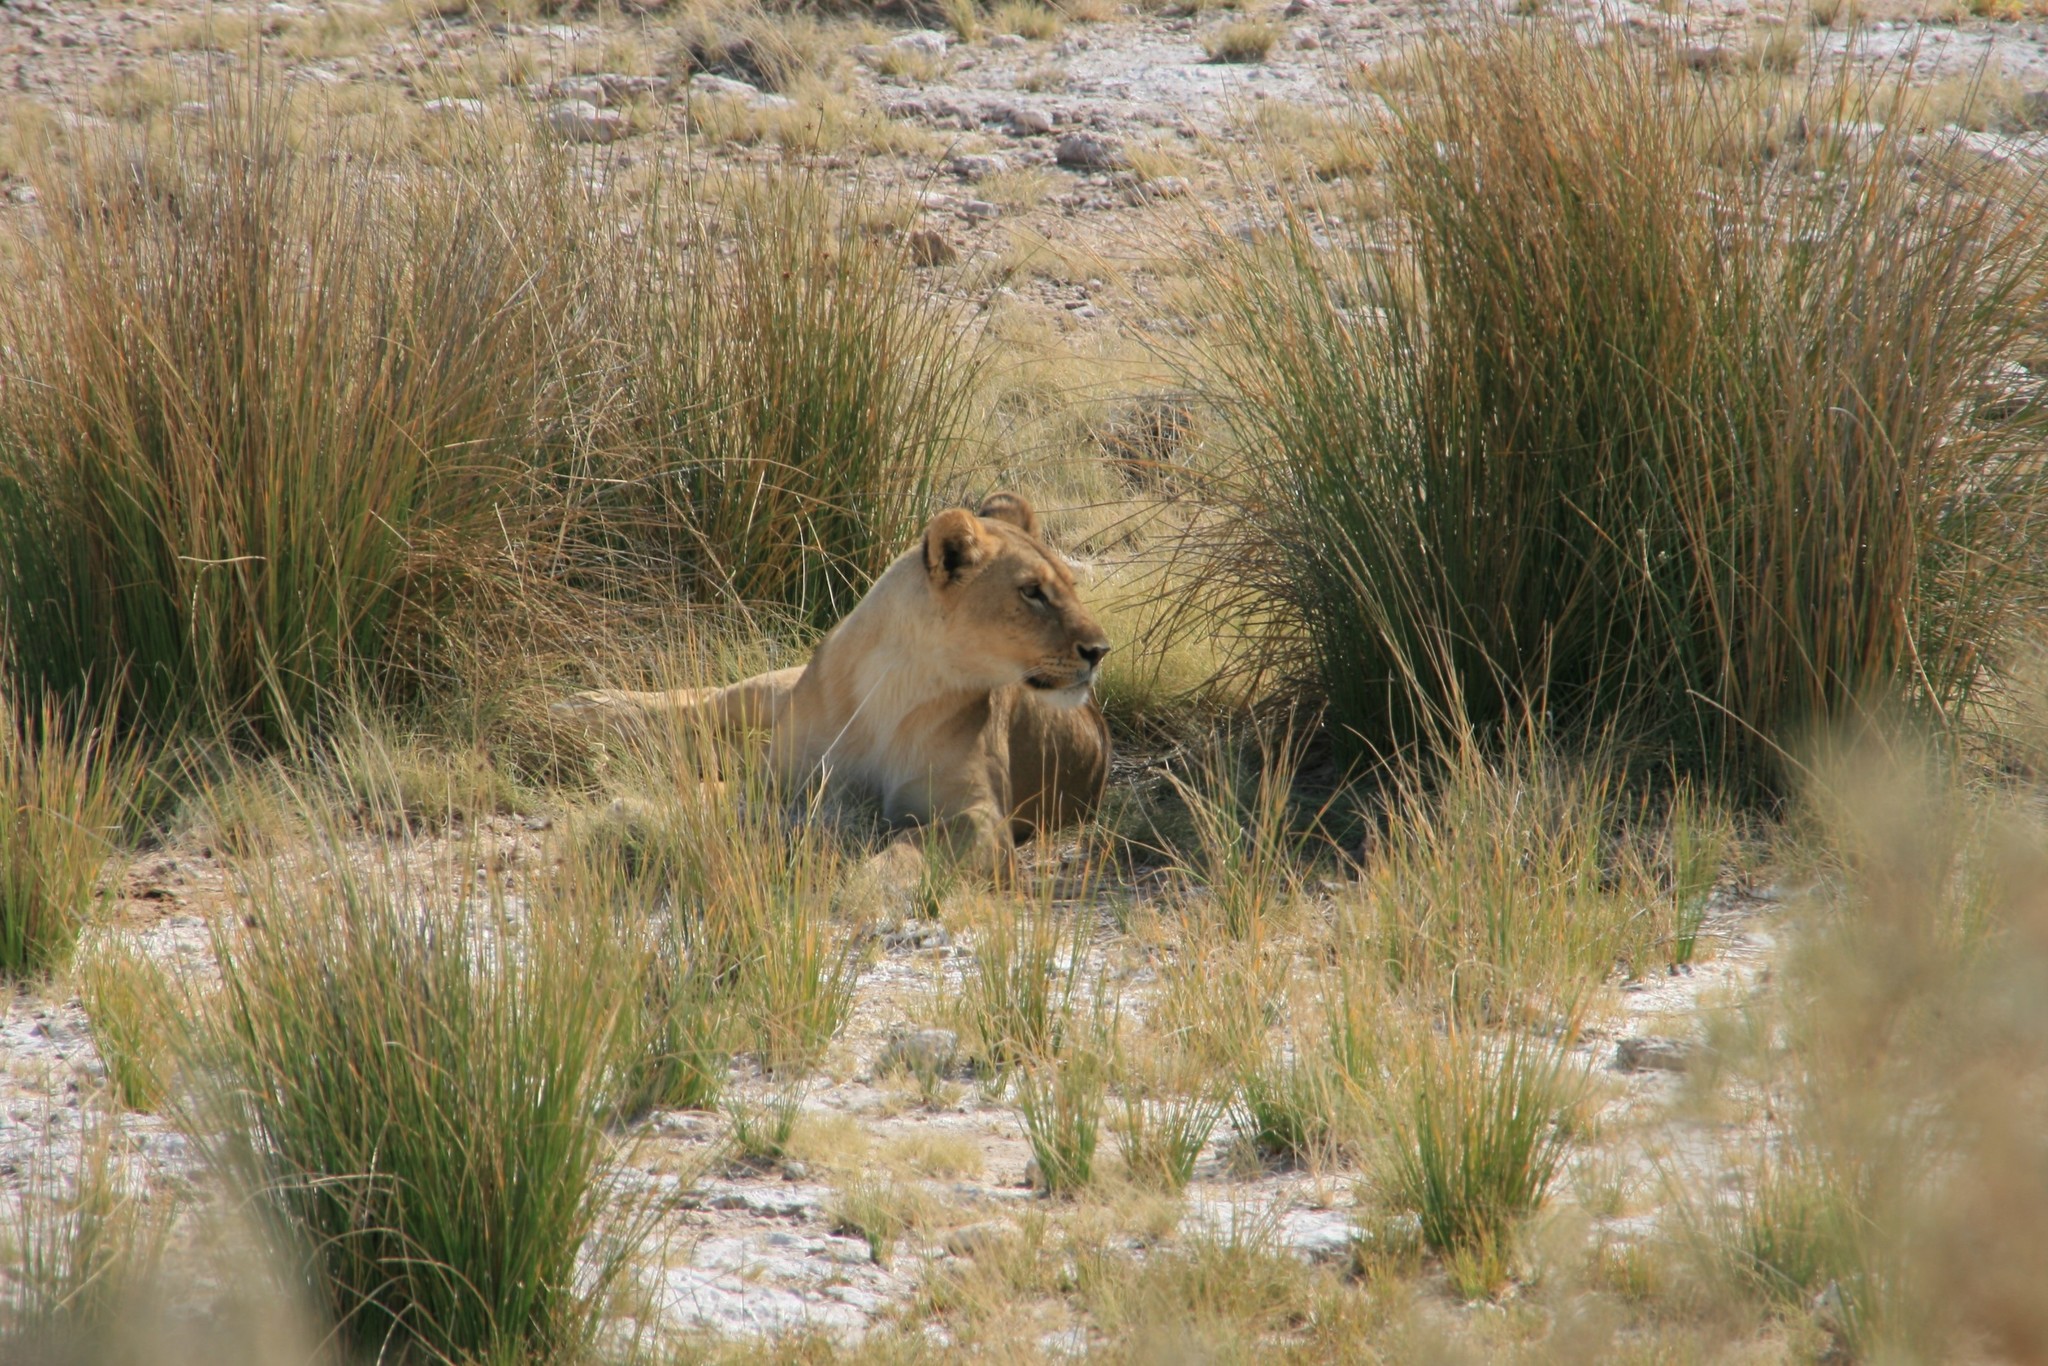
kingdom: Animalia
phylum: Chordata
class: Mammalia
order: Carnivora
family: Felidae
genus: Panthera
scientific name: Panthera leo
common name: Lion
